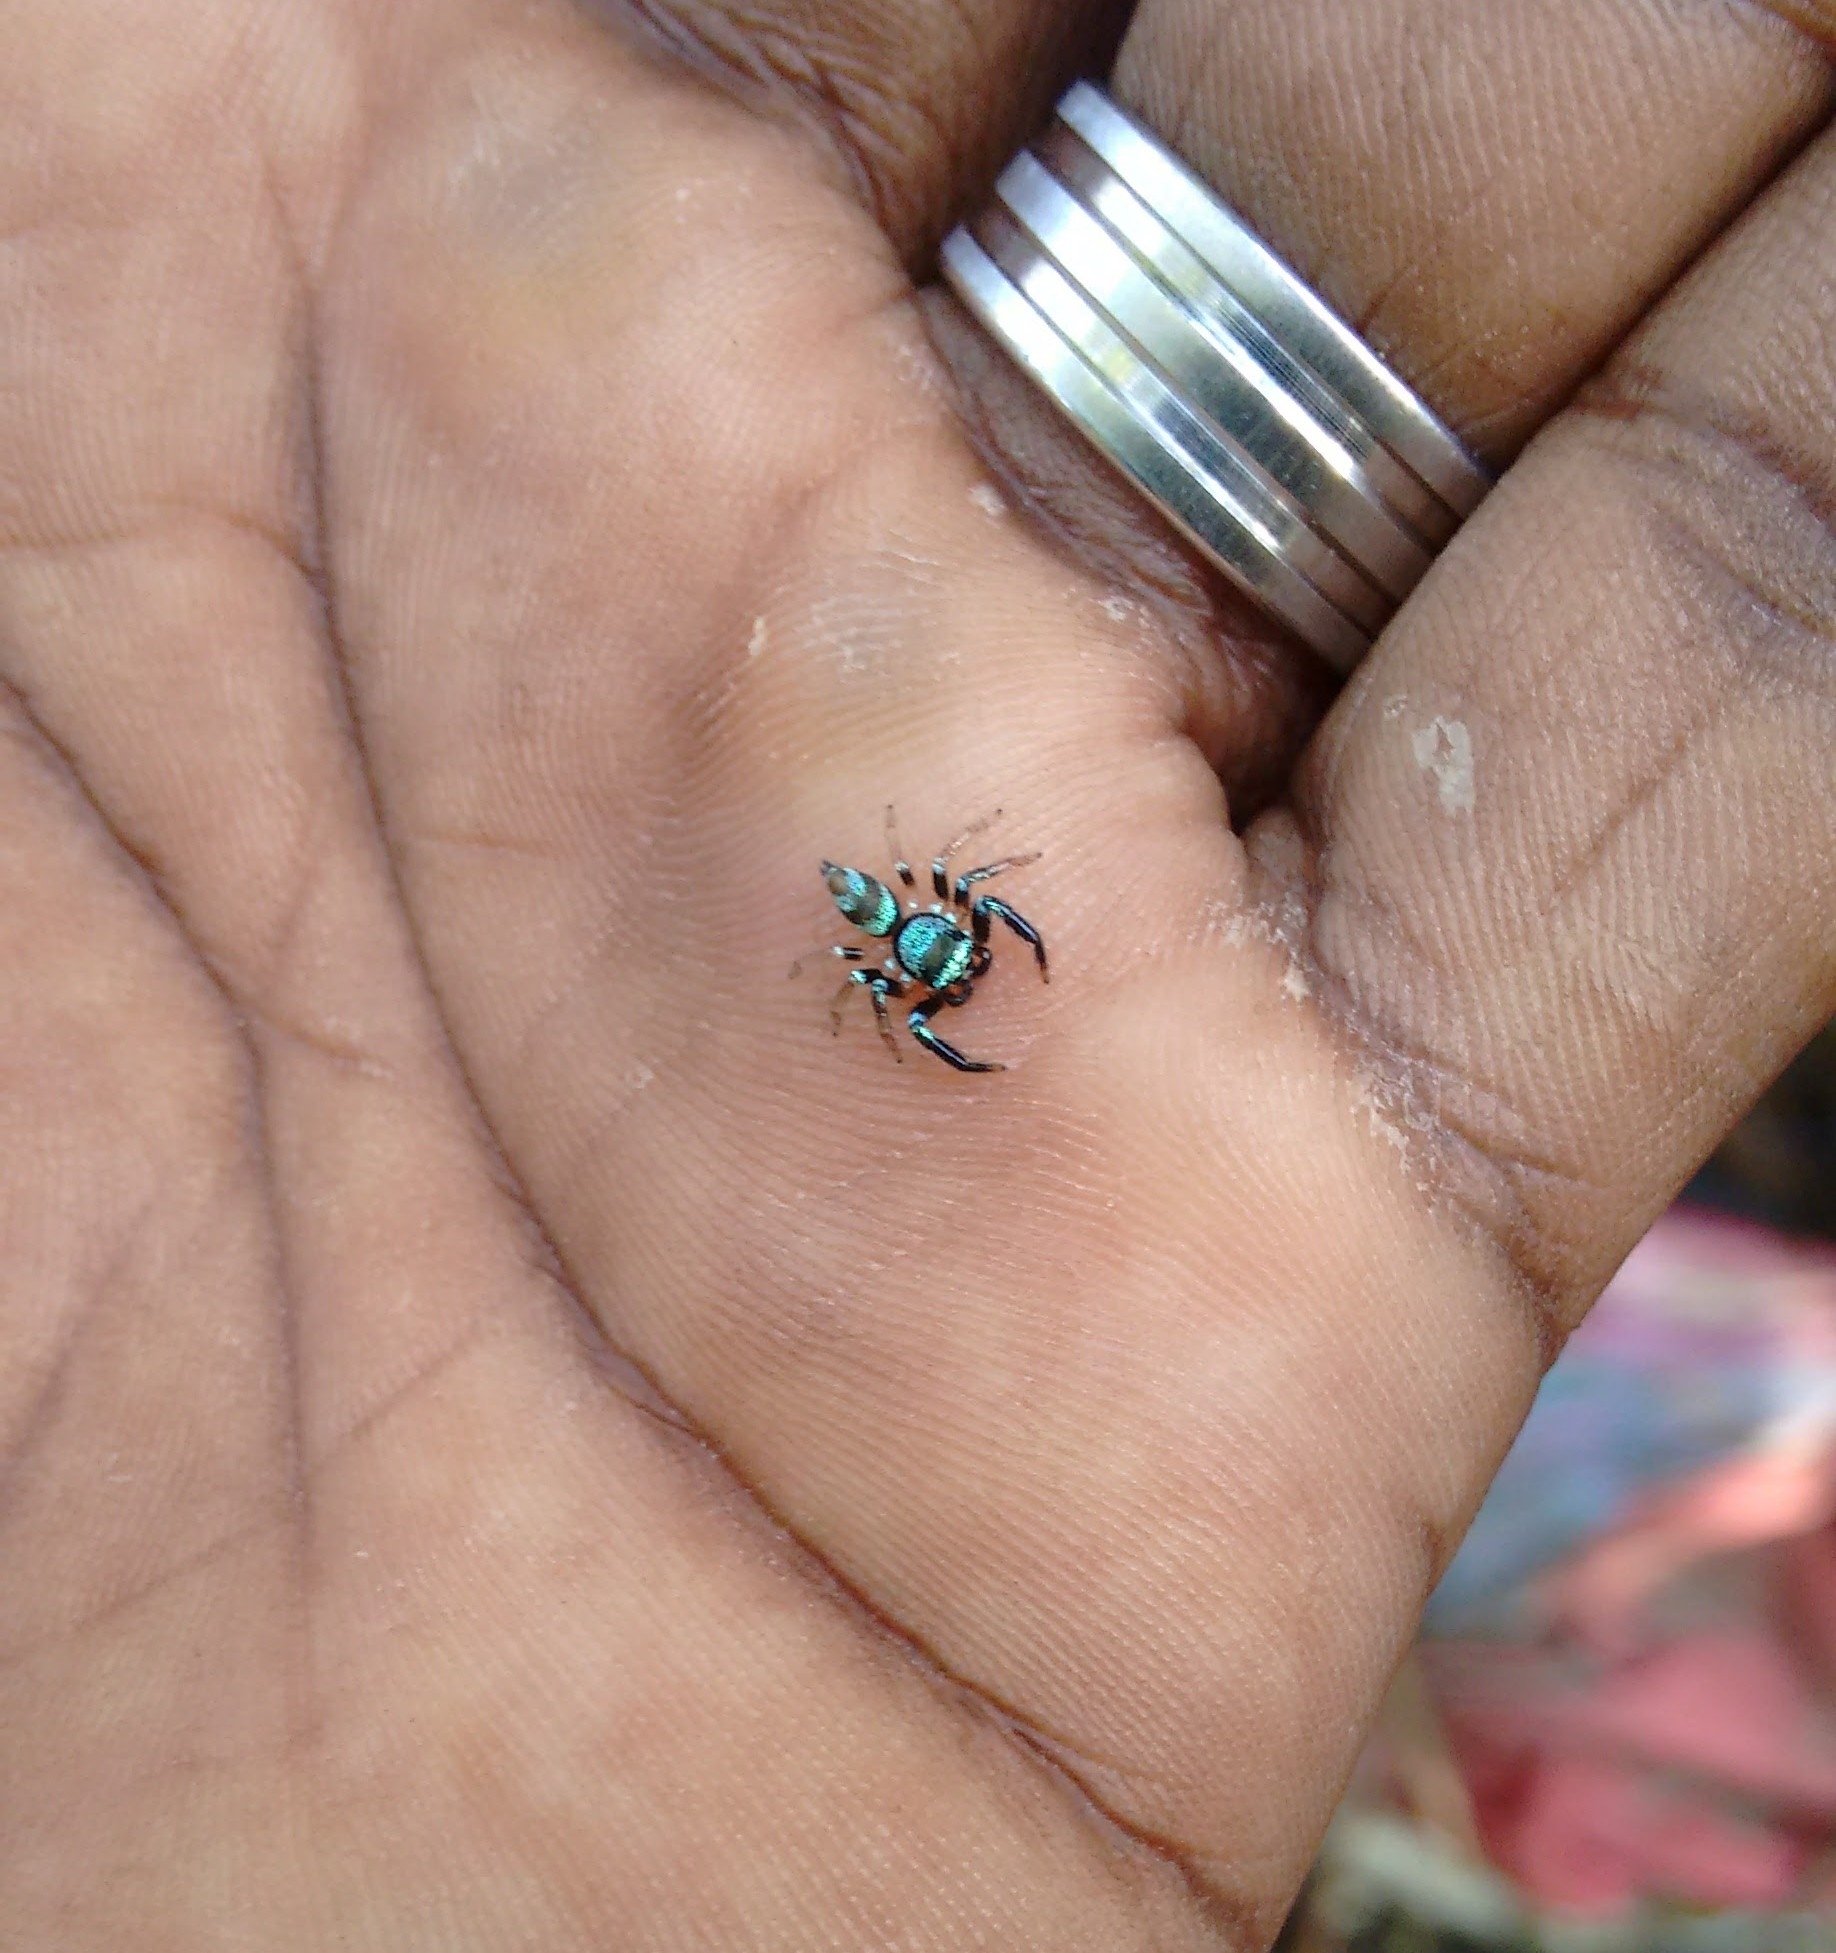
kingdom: Animalia
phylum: Arthropoda
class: Arachnida
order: Araneae
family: Salticidae
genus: Thiania
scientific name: Thiania bhamoensis
